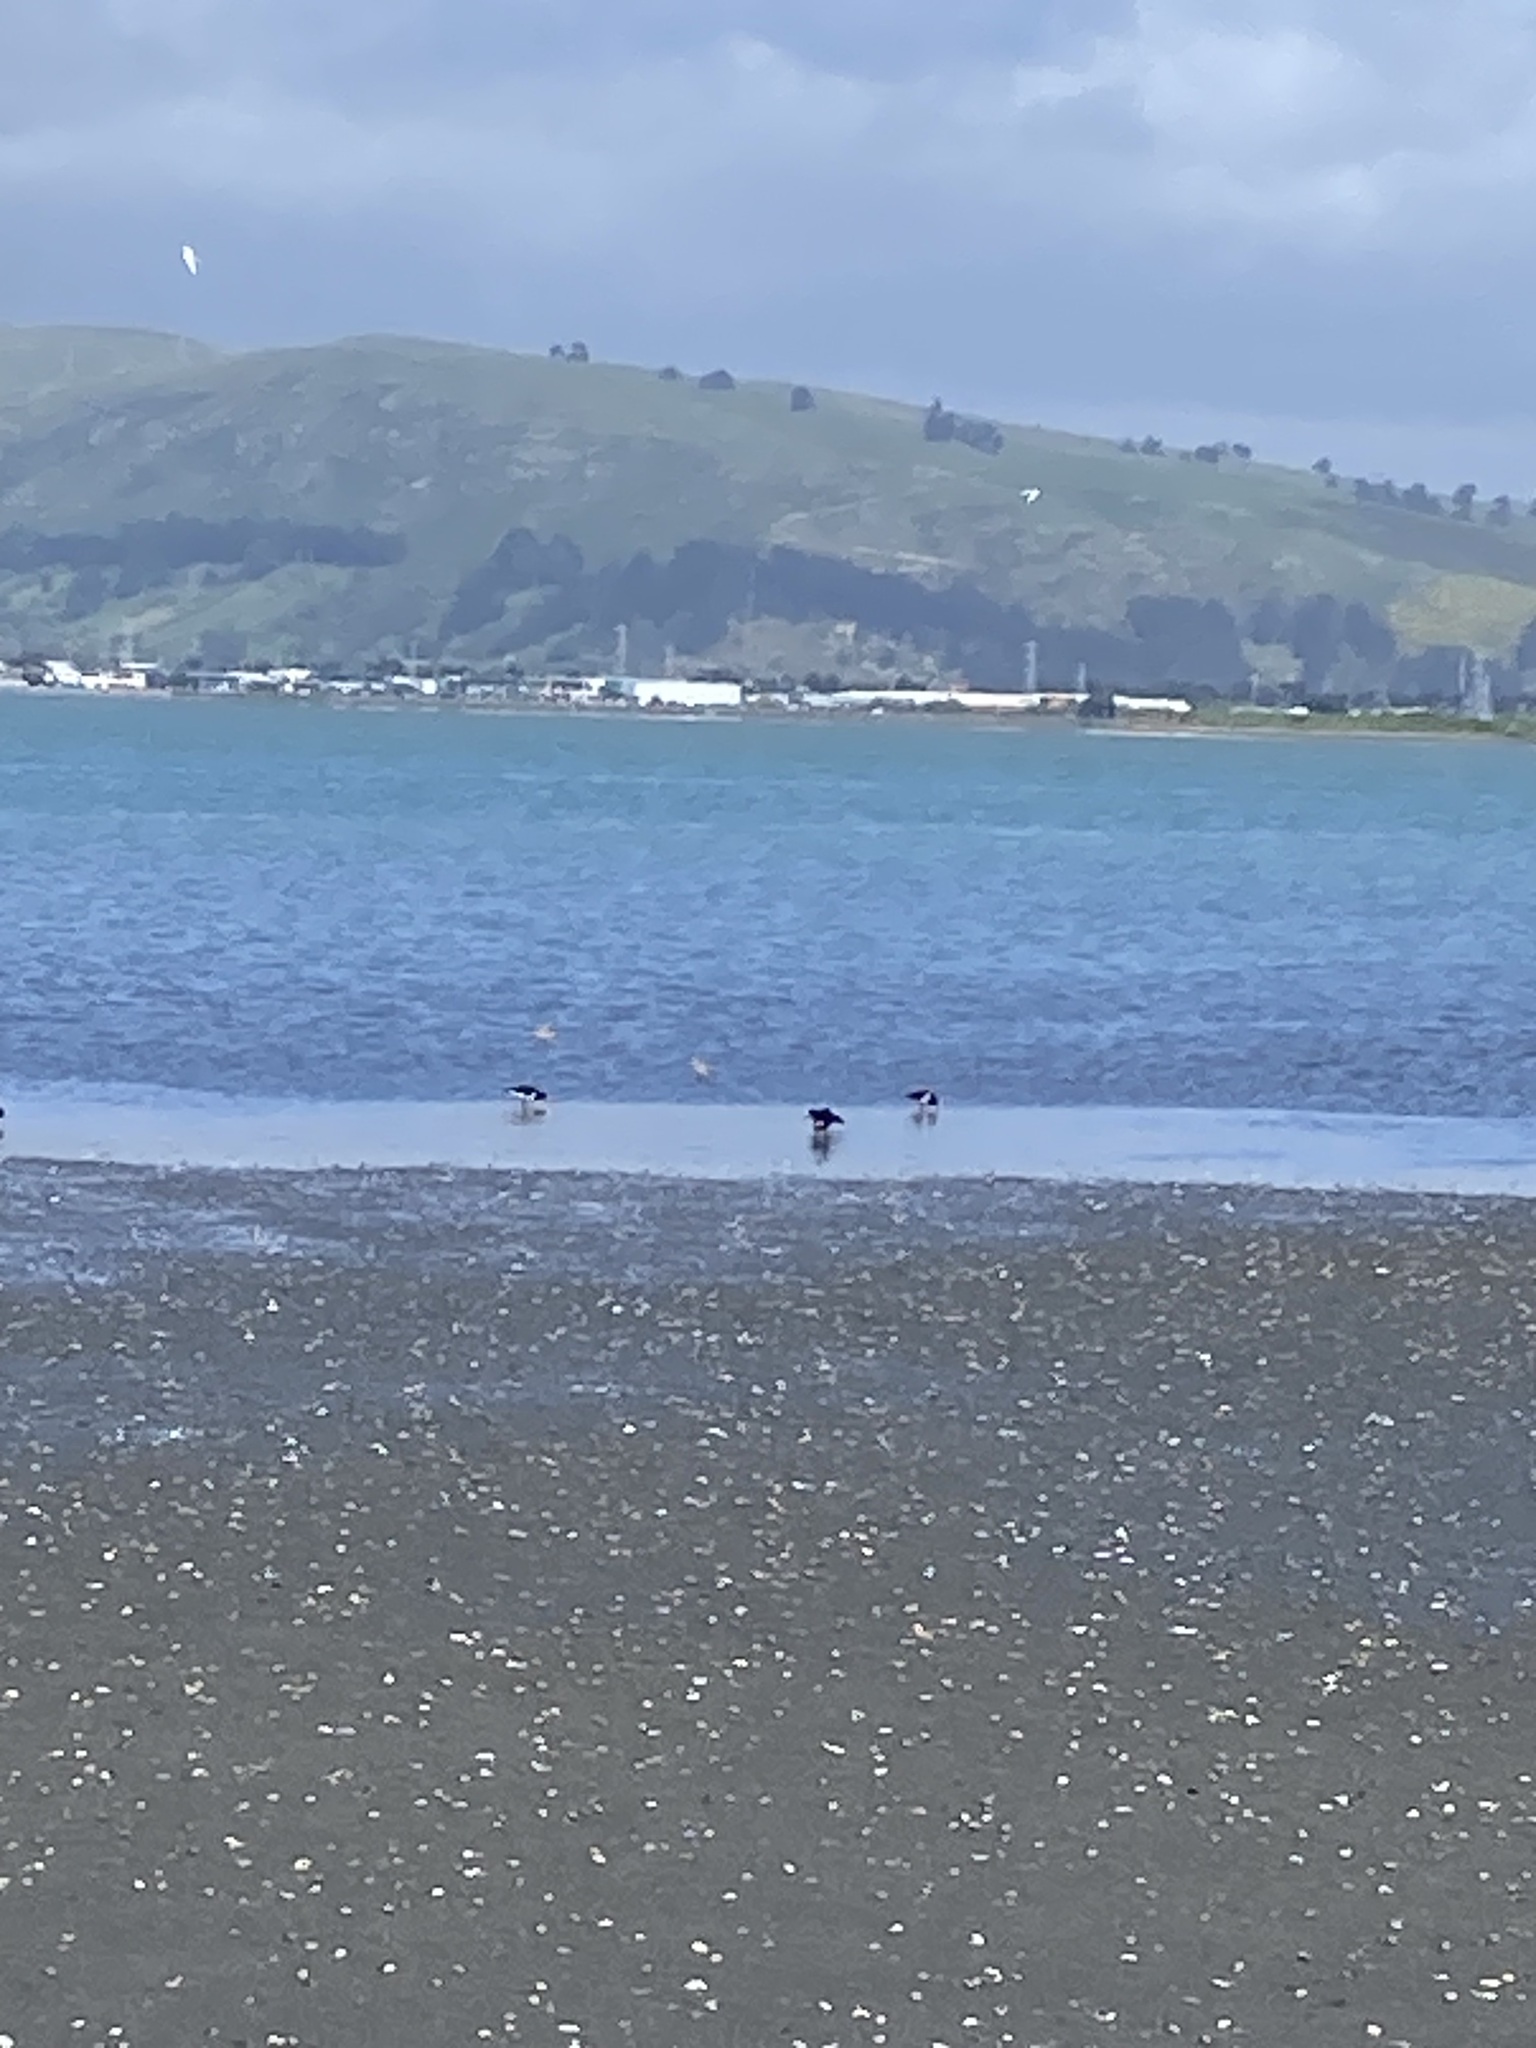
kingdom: Animalia
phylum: Chordata
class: Aves
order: Charadriiformes
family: Haematopodidae
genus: Haematopus
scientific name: Haematopus finschi
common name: South island oystercatcher
